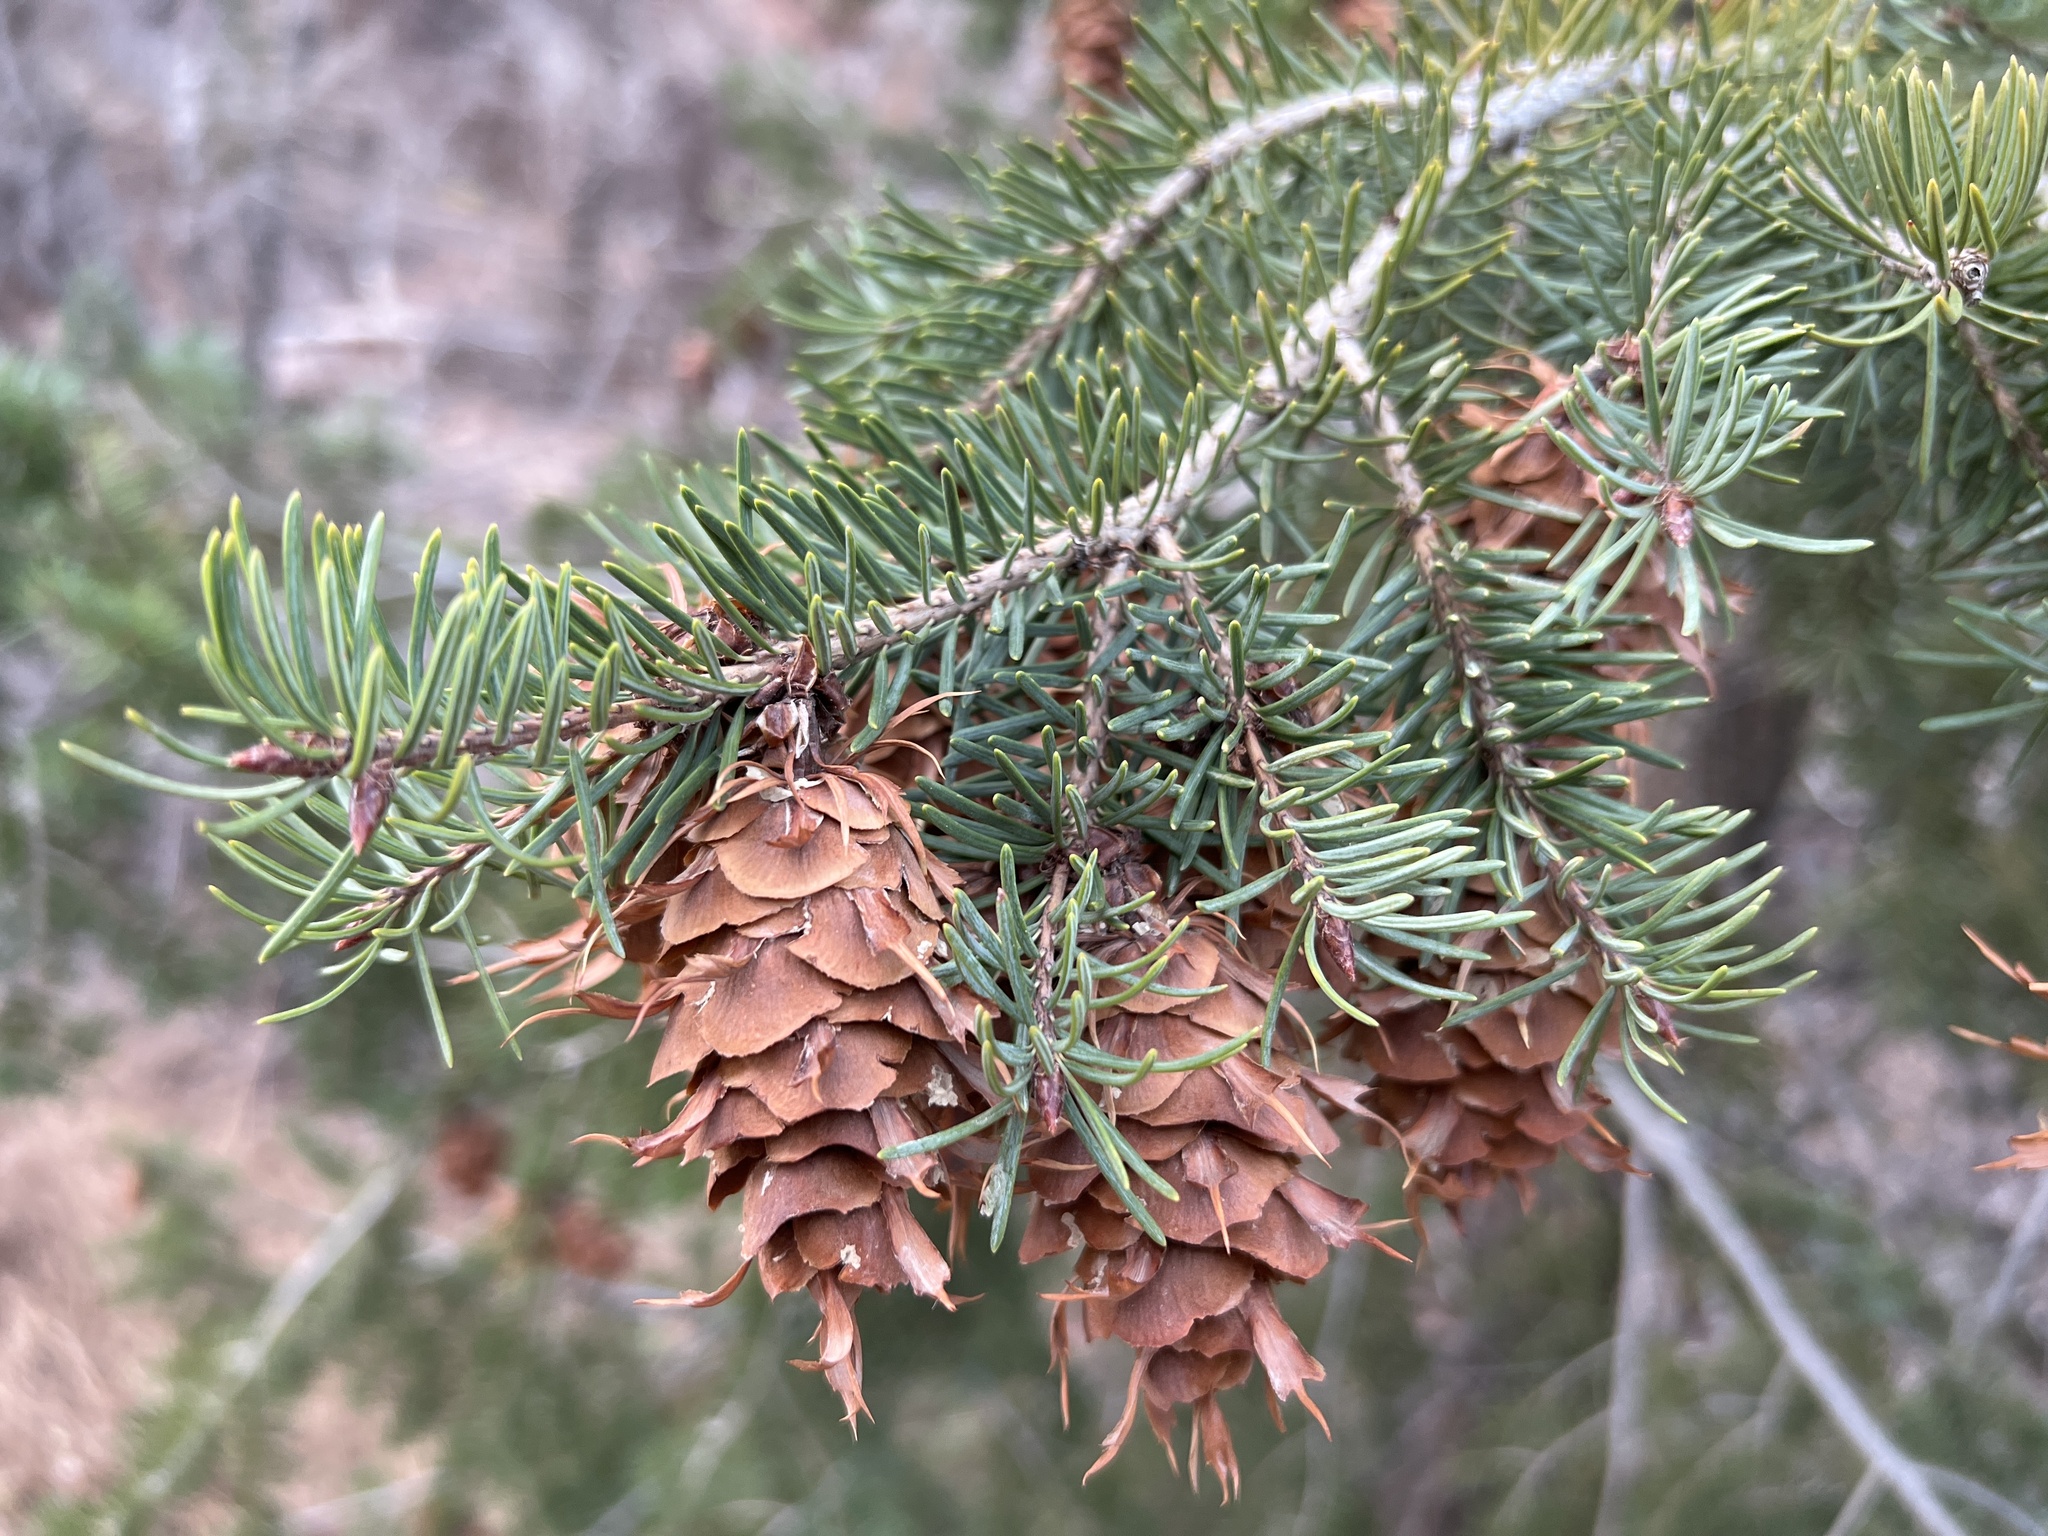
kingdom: Plantae
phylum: Tracheophyta
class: Pinopsida
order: Pinales
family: Pinaceae
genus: Pseudotsuga
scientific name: Pseudotsuga menziesii
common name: Douglas fir
